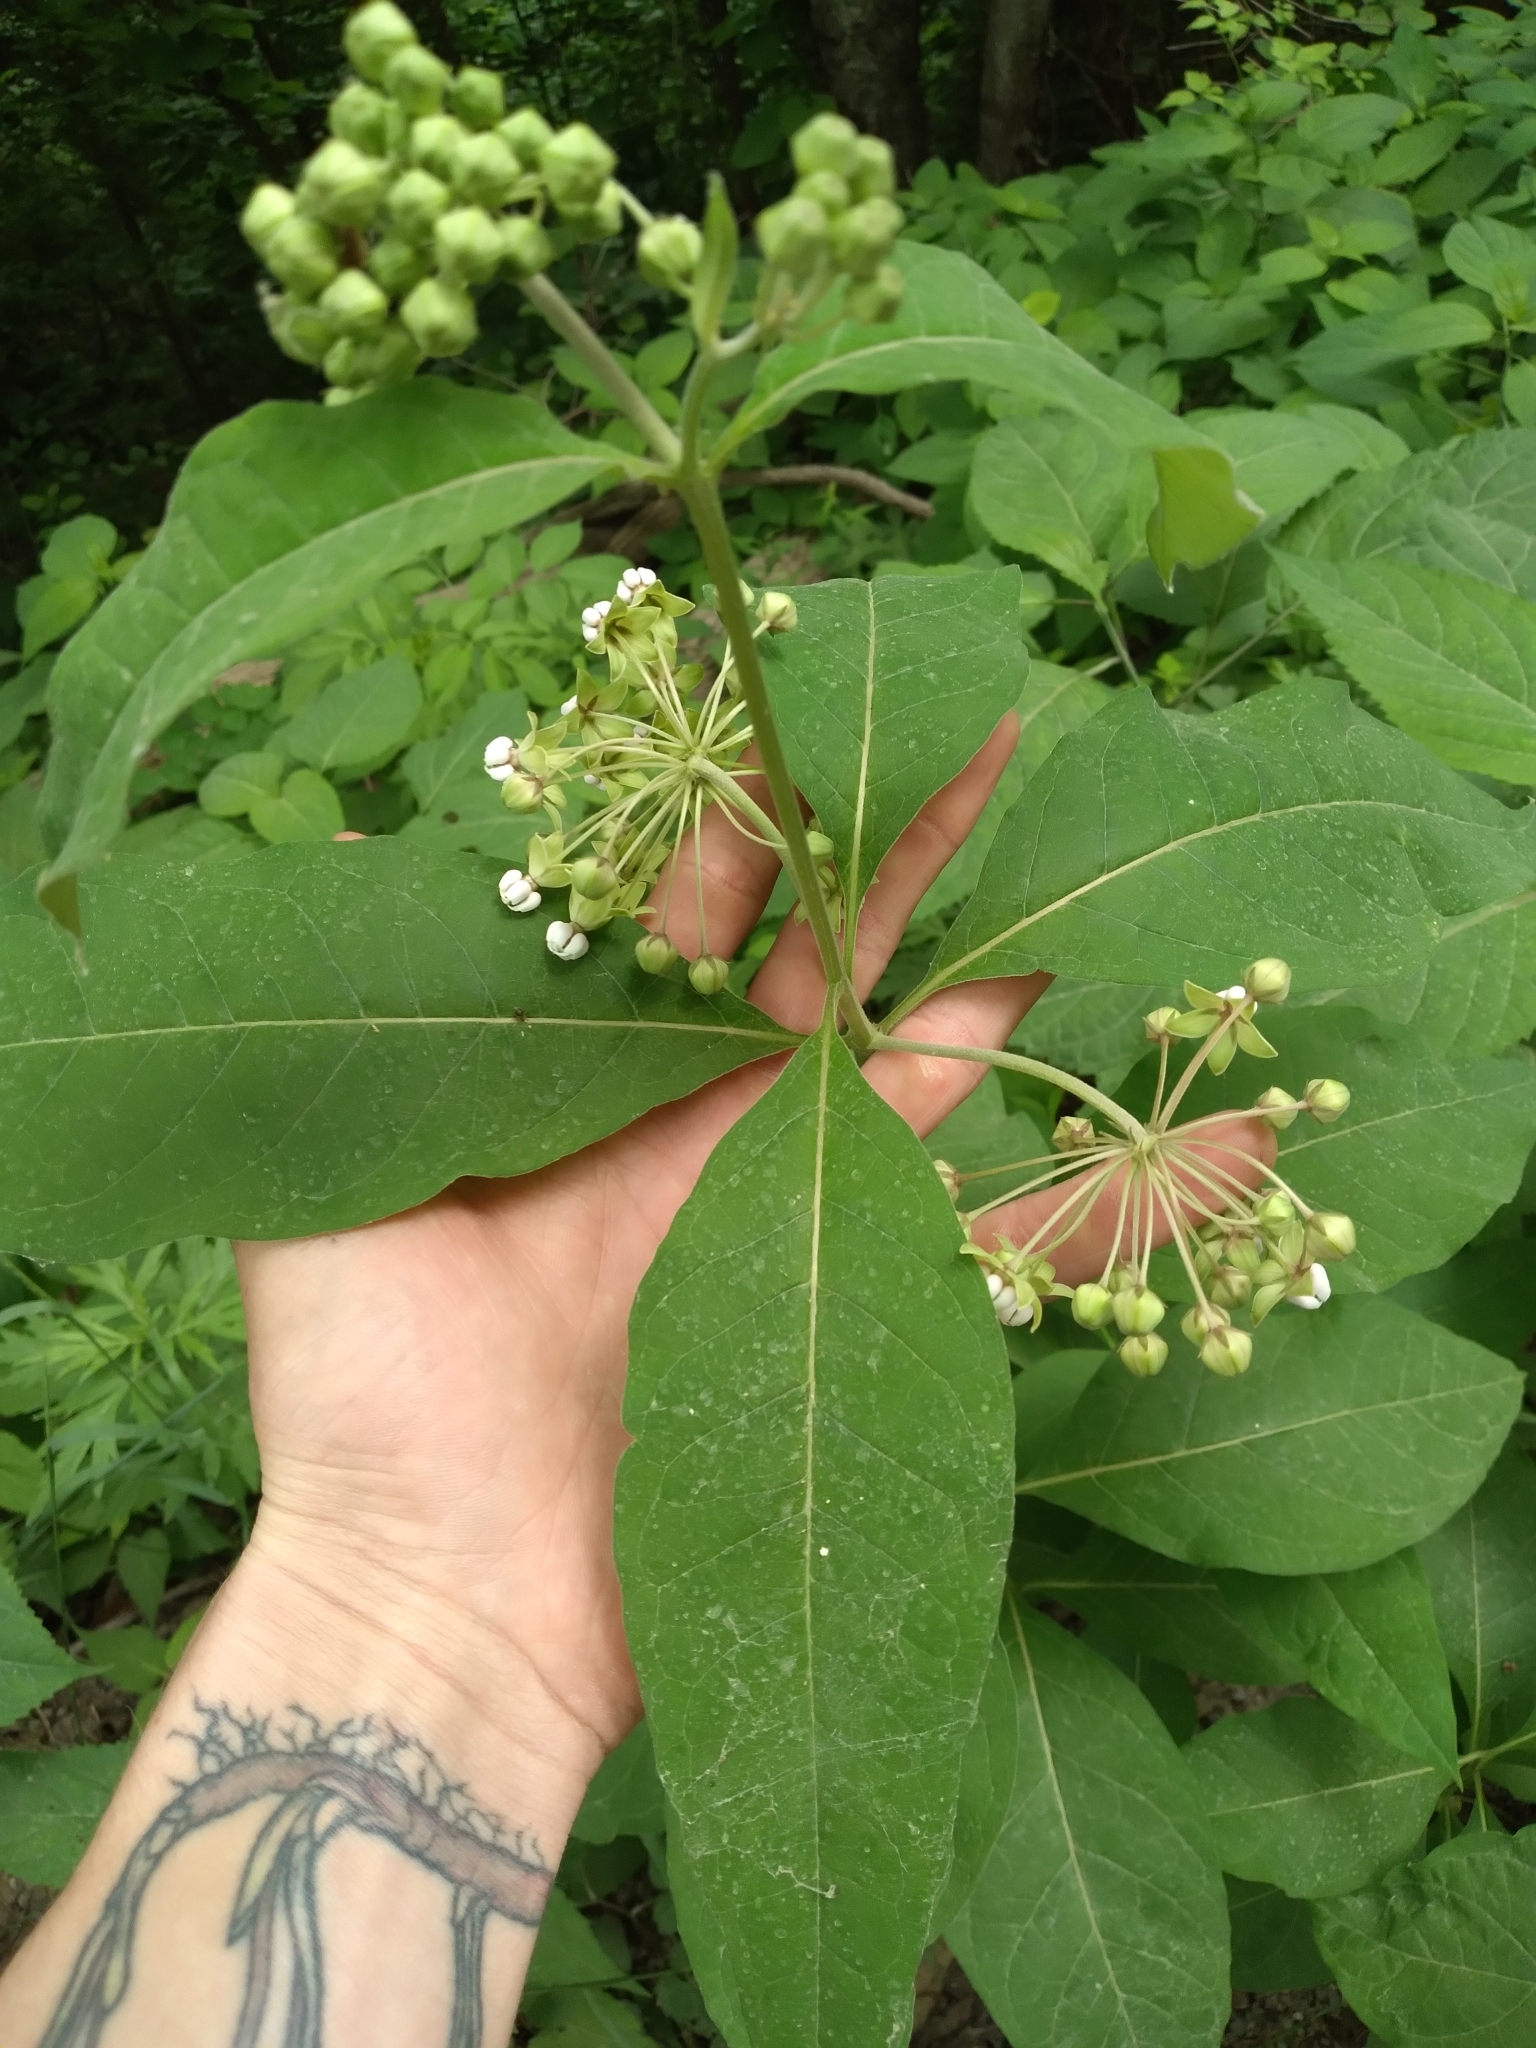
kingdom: Plantae
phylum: Tracheophyta
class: Magnoliopsida
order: Gentianales
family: Apocynaceae
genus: Asclepias
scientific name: Asclepias exaltata
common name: Poke milkweed
